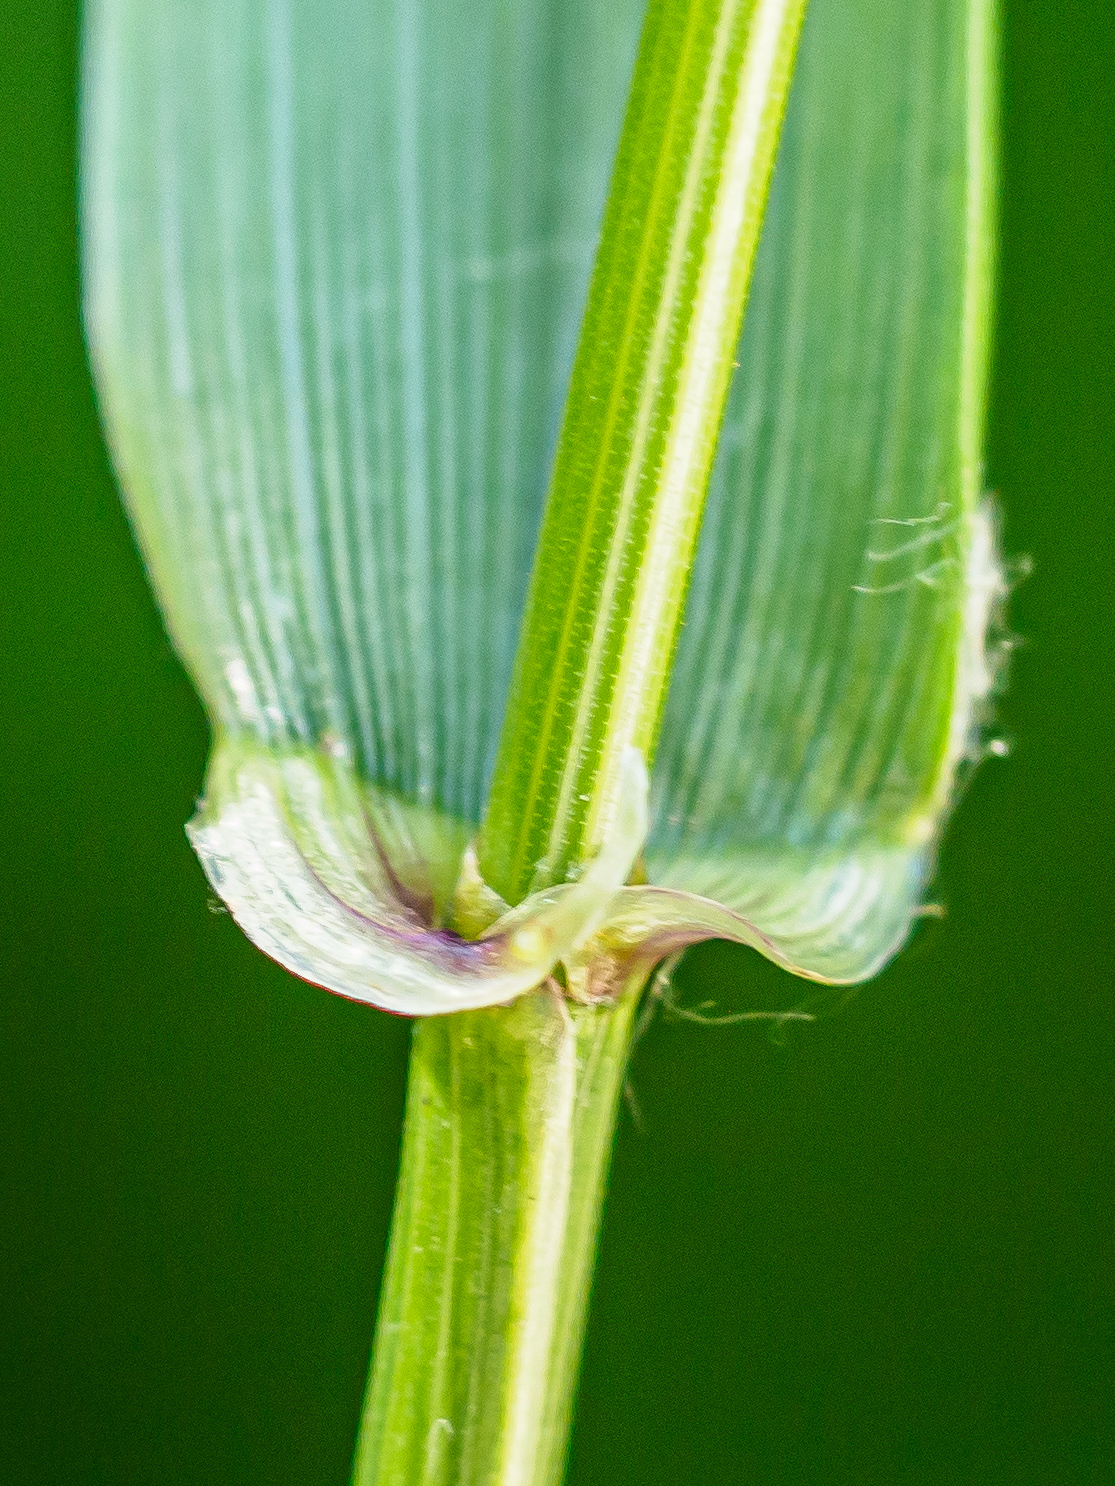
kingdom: Plantae
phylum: Tracheophyta
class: Liliopsida
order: Poales
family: Poaceae
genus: Lolium
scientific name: Lolium giganteum
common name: Giant fescue
